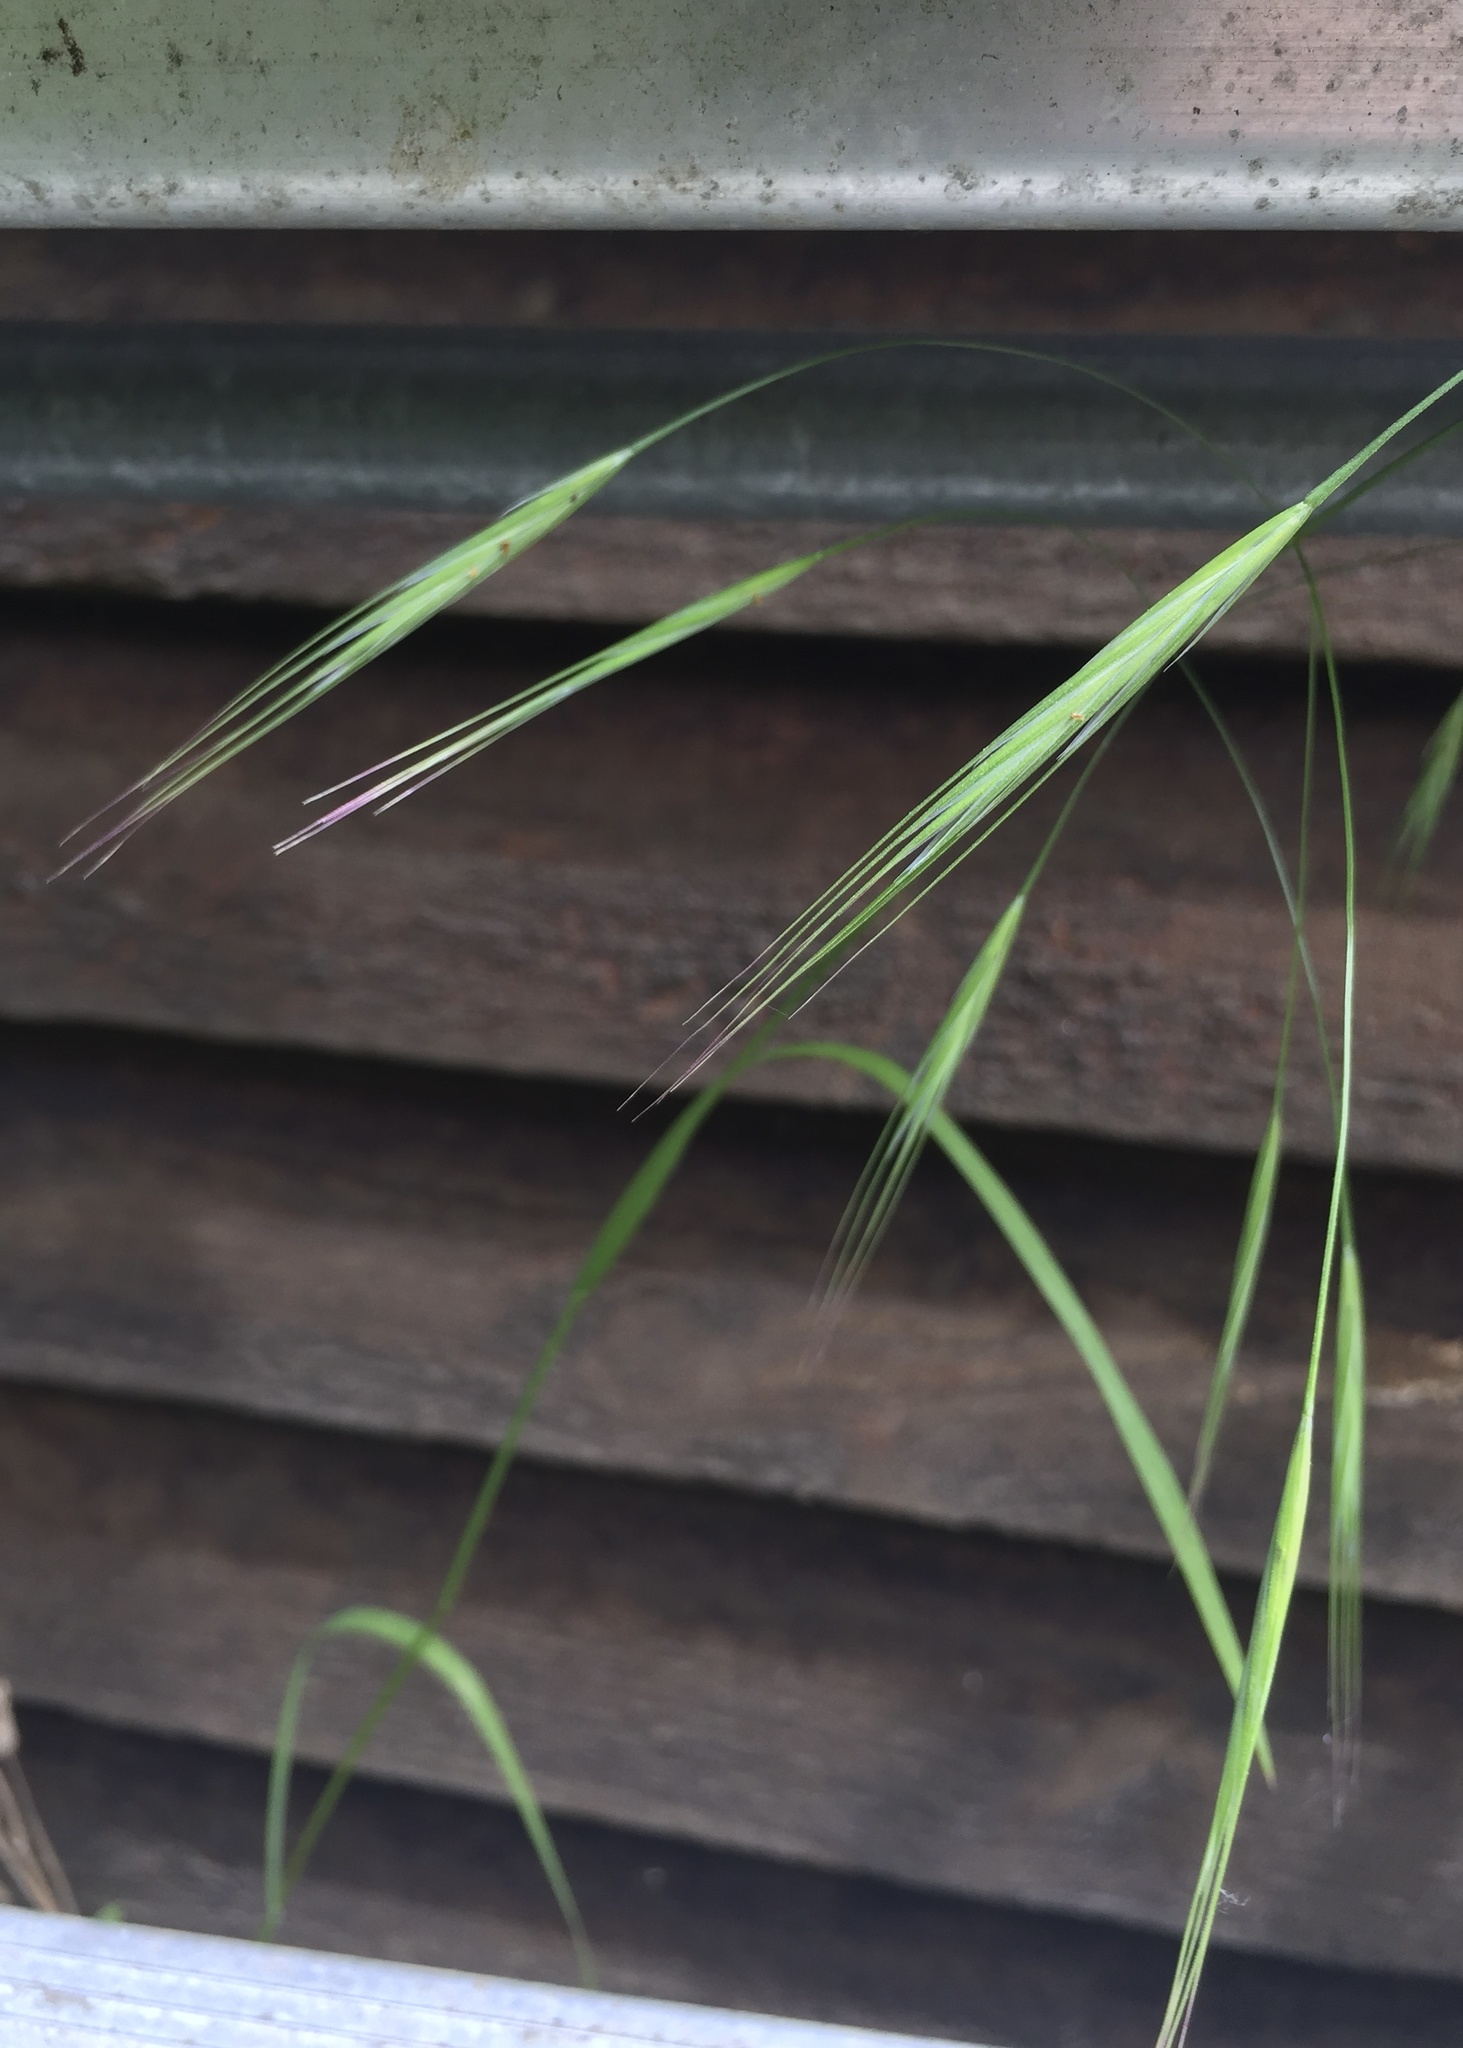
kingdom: Plantae
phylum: Tracheophyta
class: Liliopsida
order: Poales
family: Poaceae
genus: Bromus
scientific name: Bromus sterilis
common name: Poverty brome
